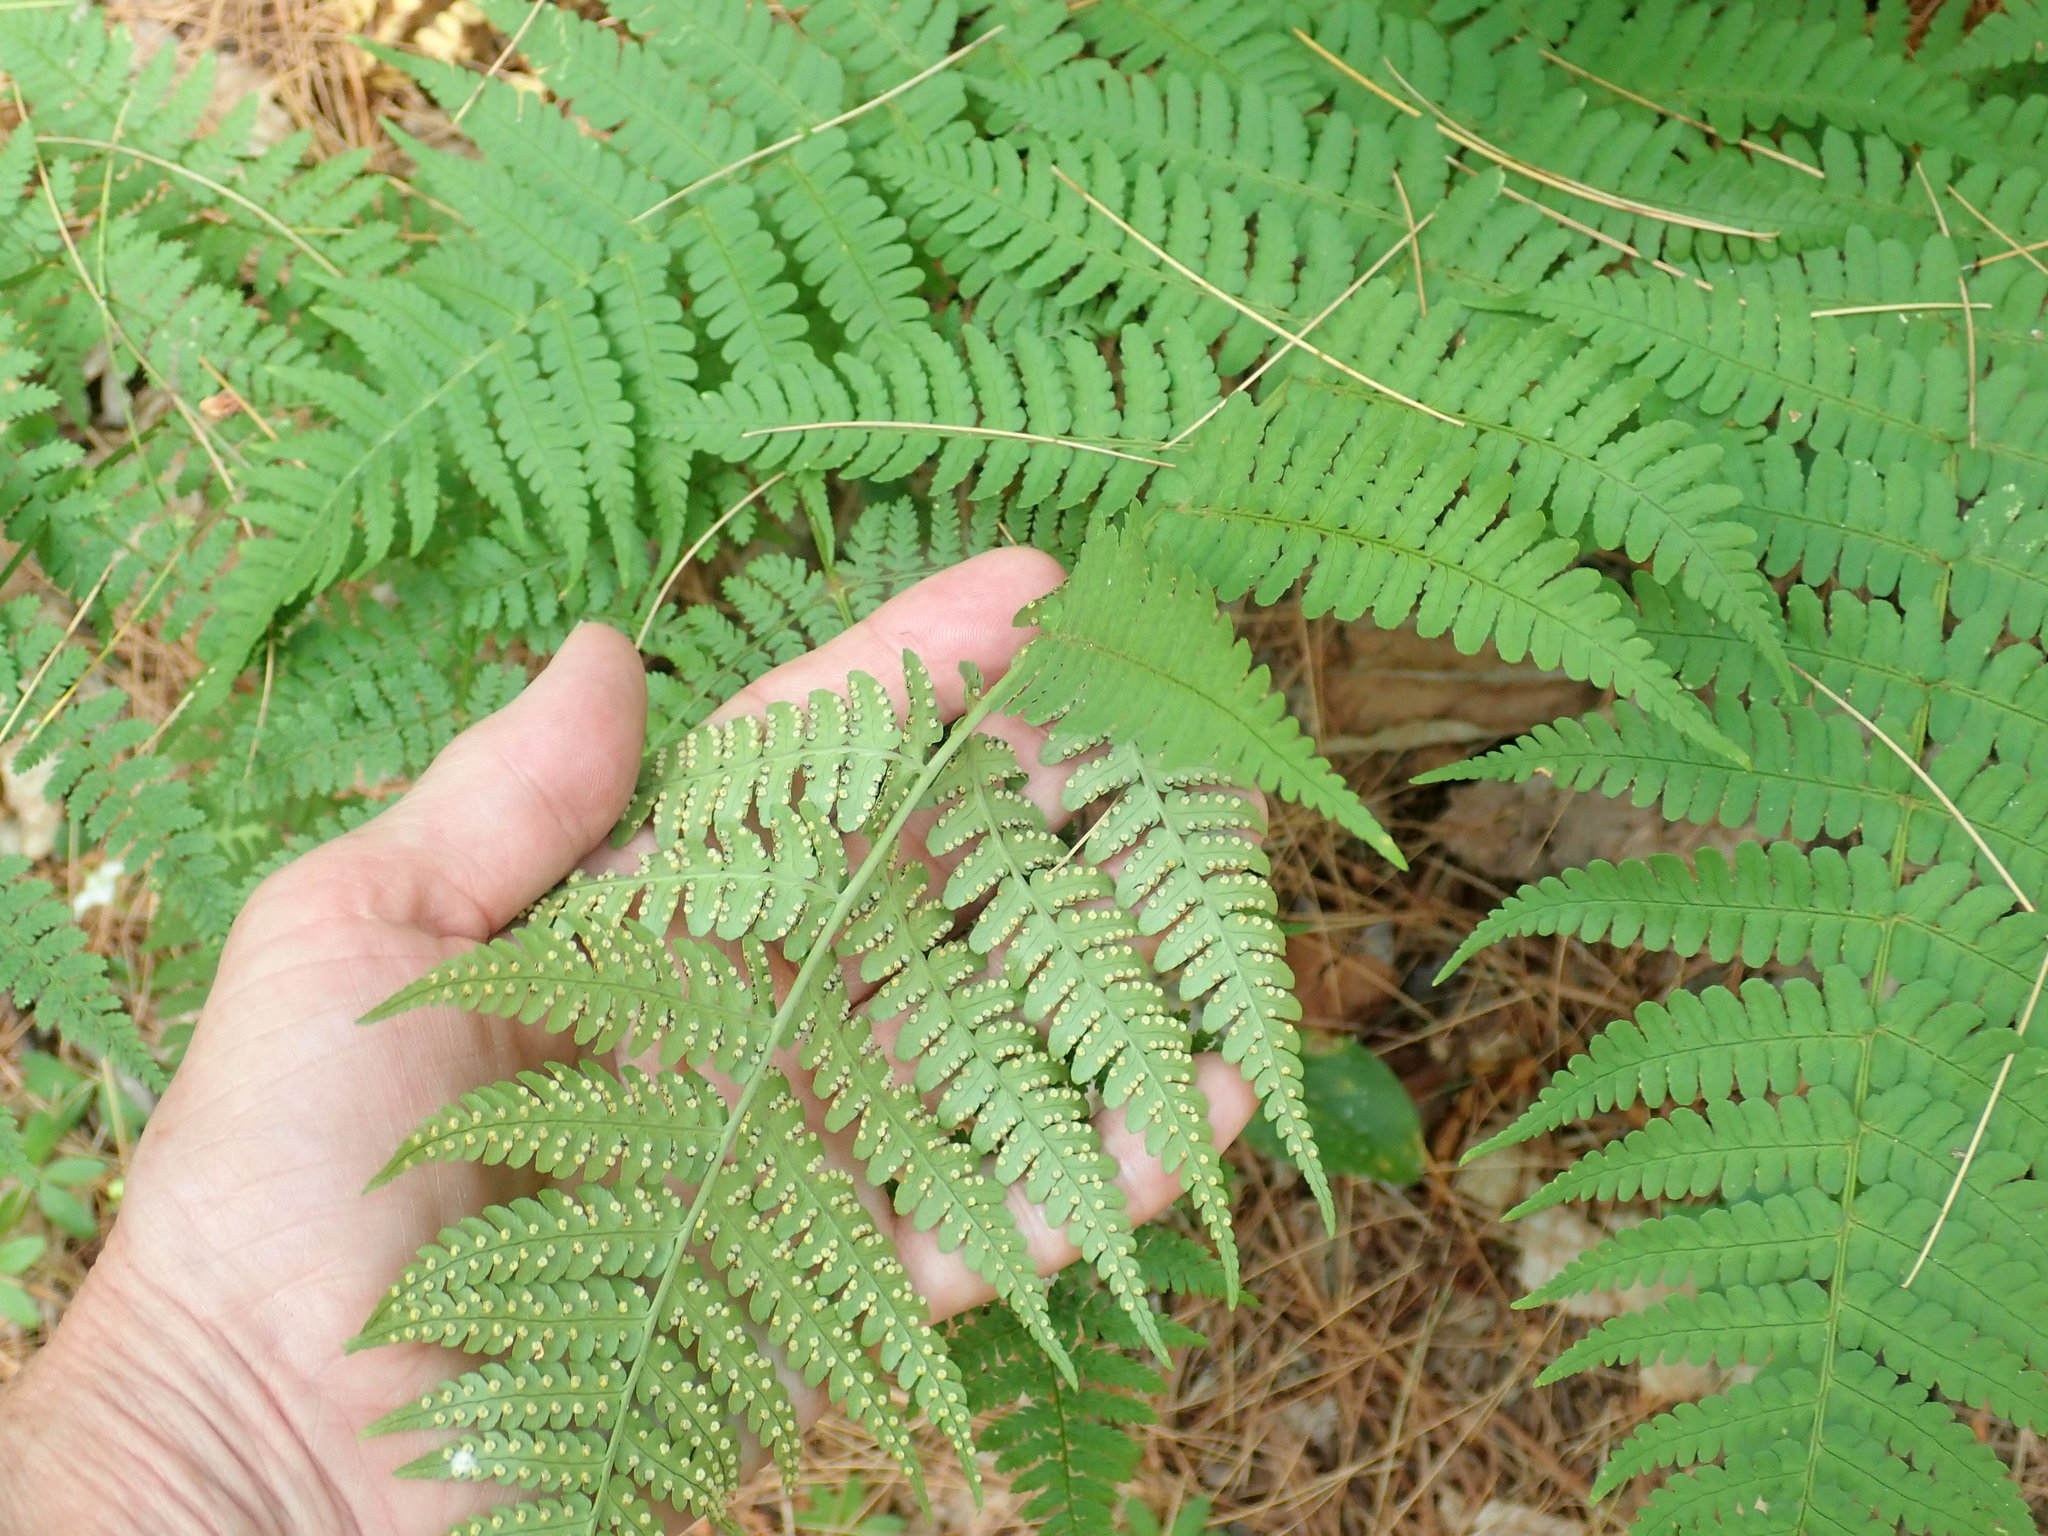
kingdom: Plantae
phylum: Tracheophyta
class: Polypodiopsida
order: Polypodiales
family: Dryopteridaceae
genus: Dryopteris
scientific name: Dryopteris marginalis
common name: Marginal wood fern
